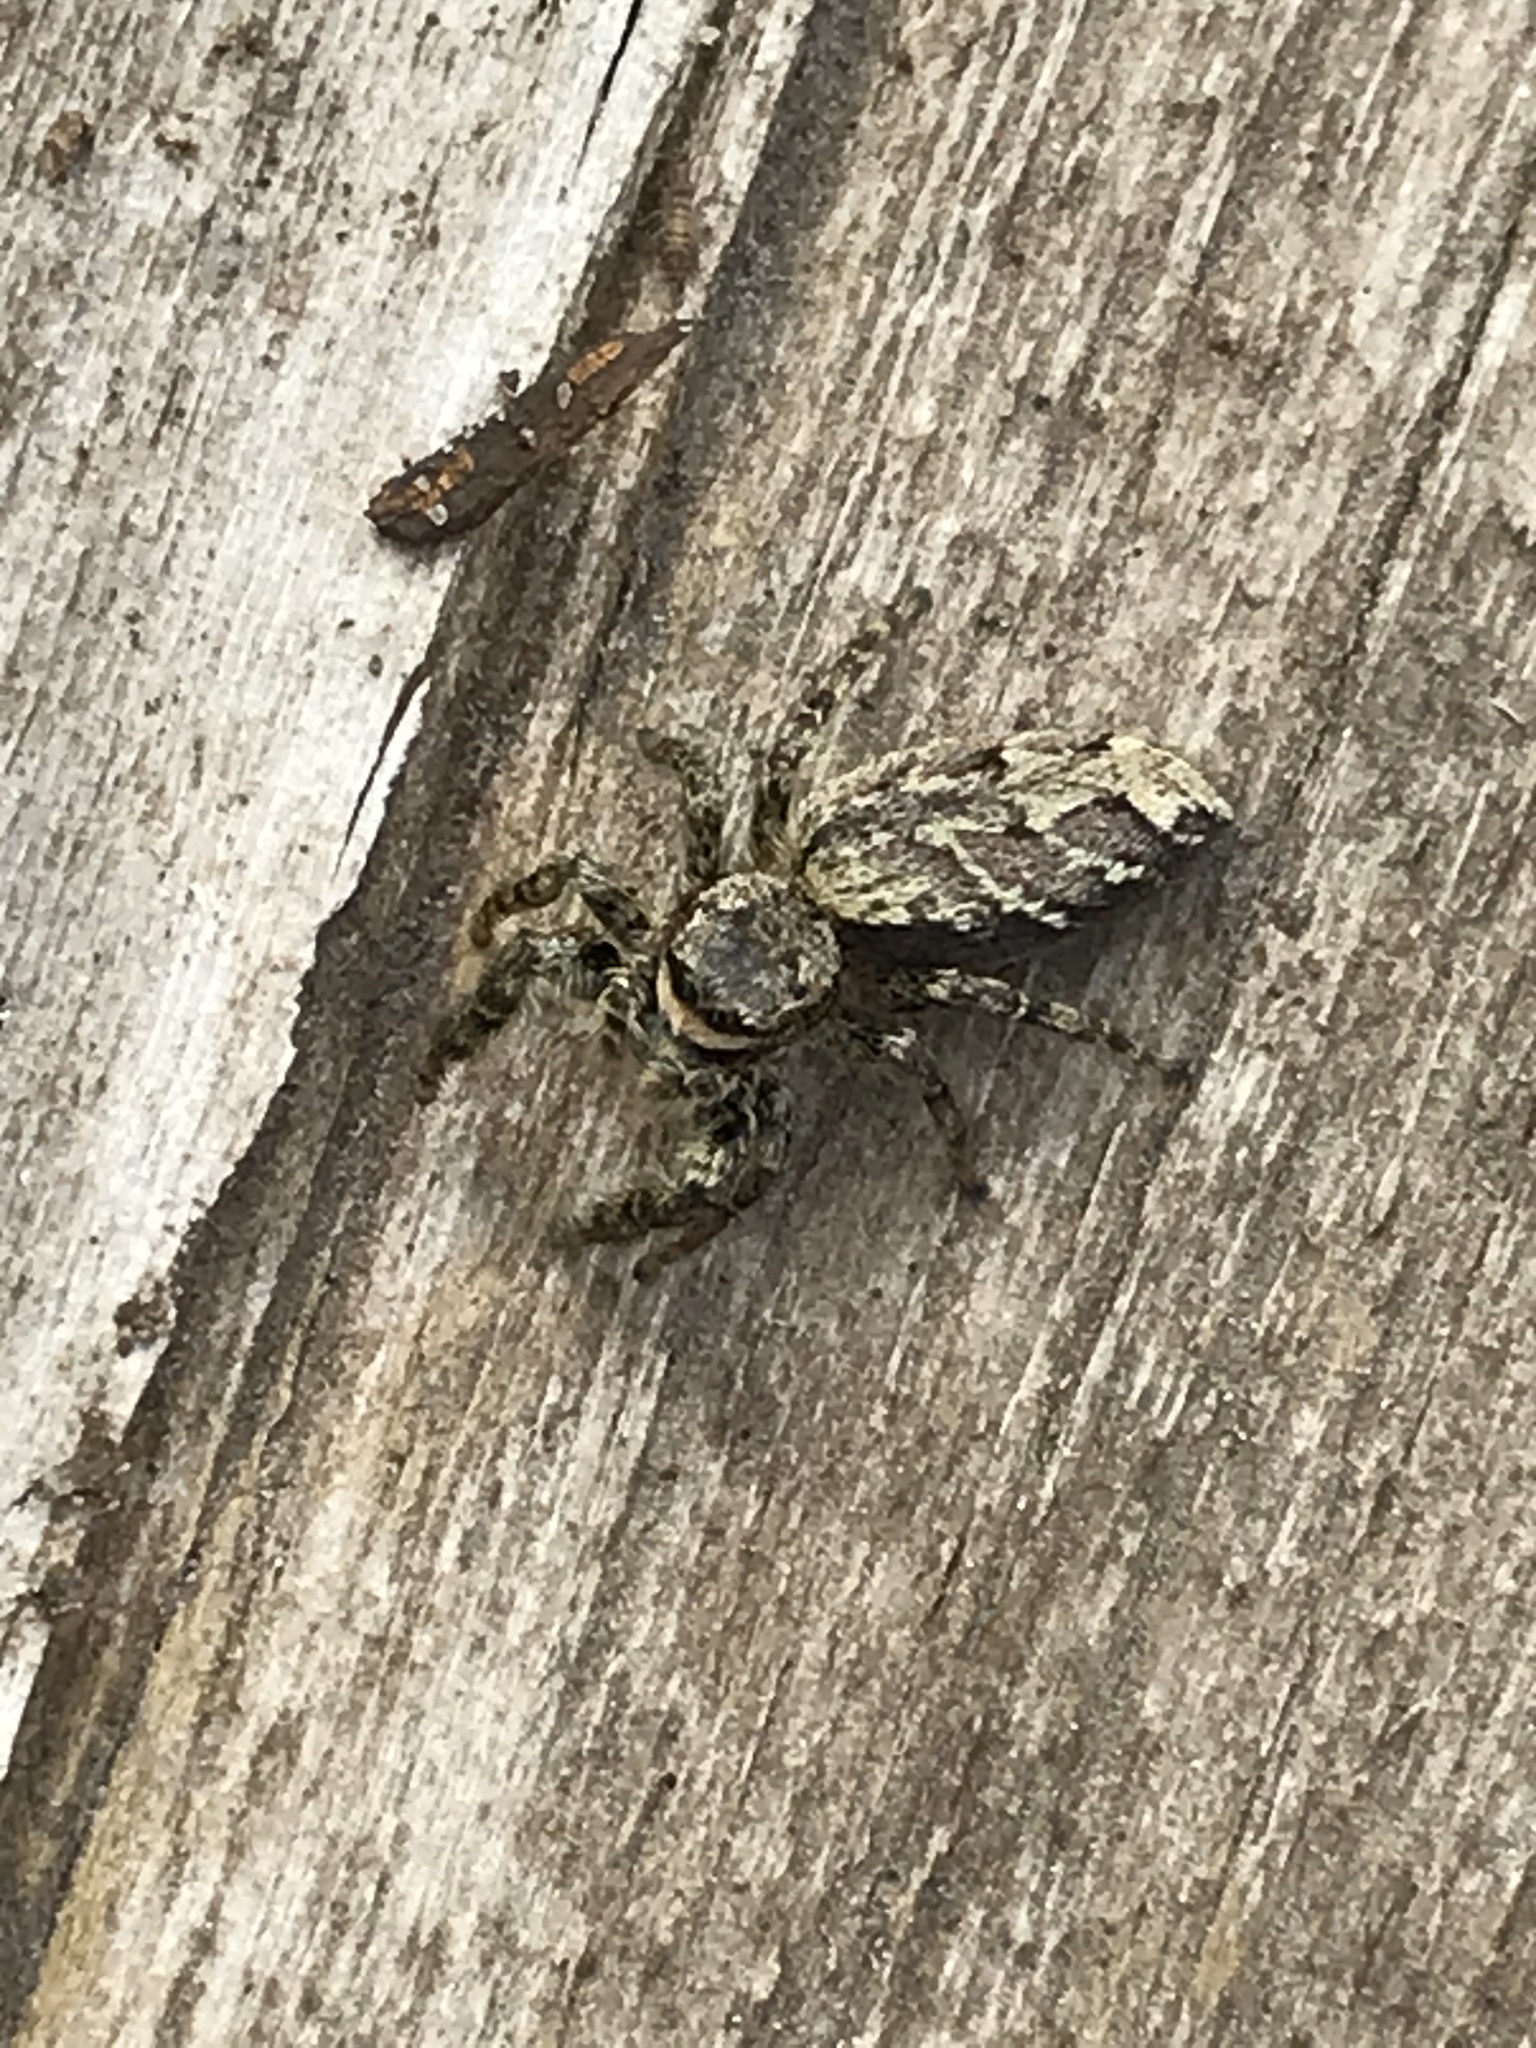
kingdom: Animalia
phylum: Arthropoda
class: Arachnida
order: Araneae
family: Salticidae
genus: Marpissa
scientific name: Marpissa muscosa
